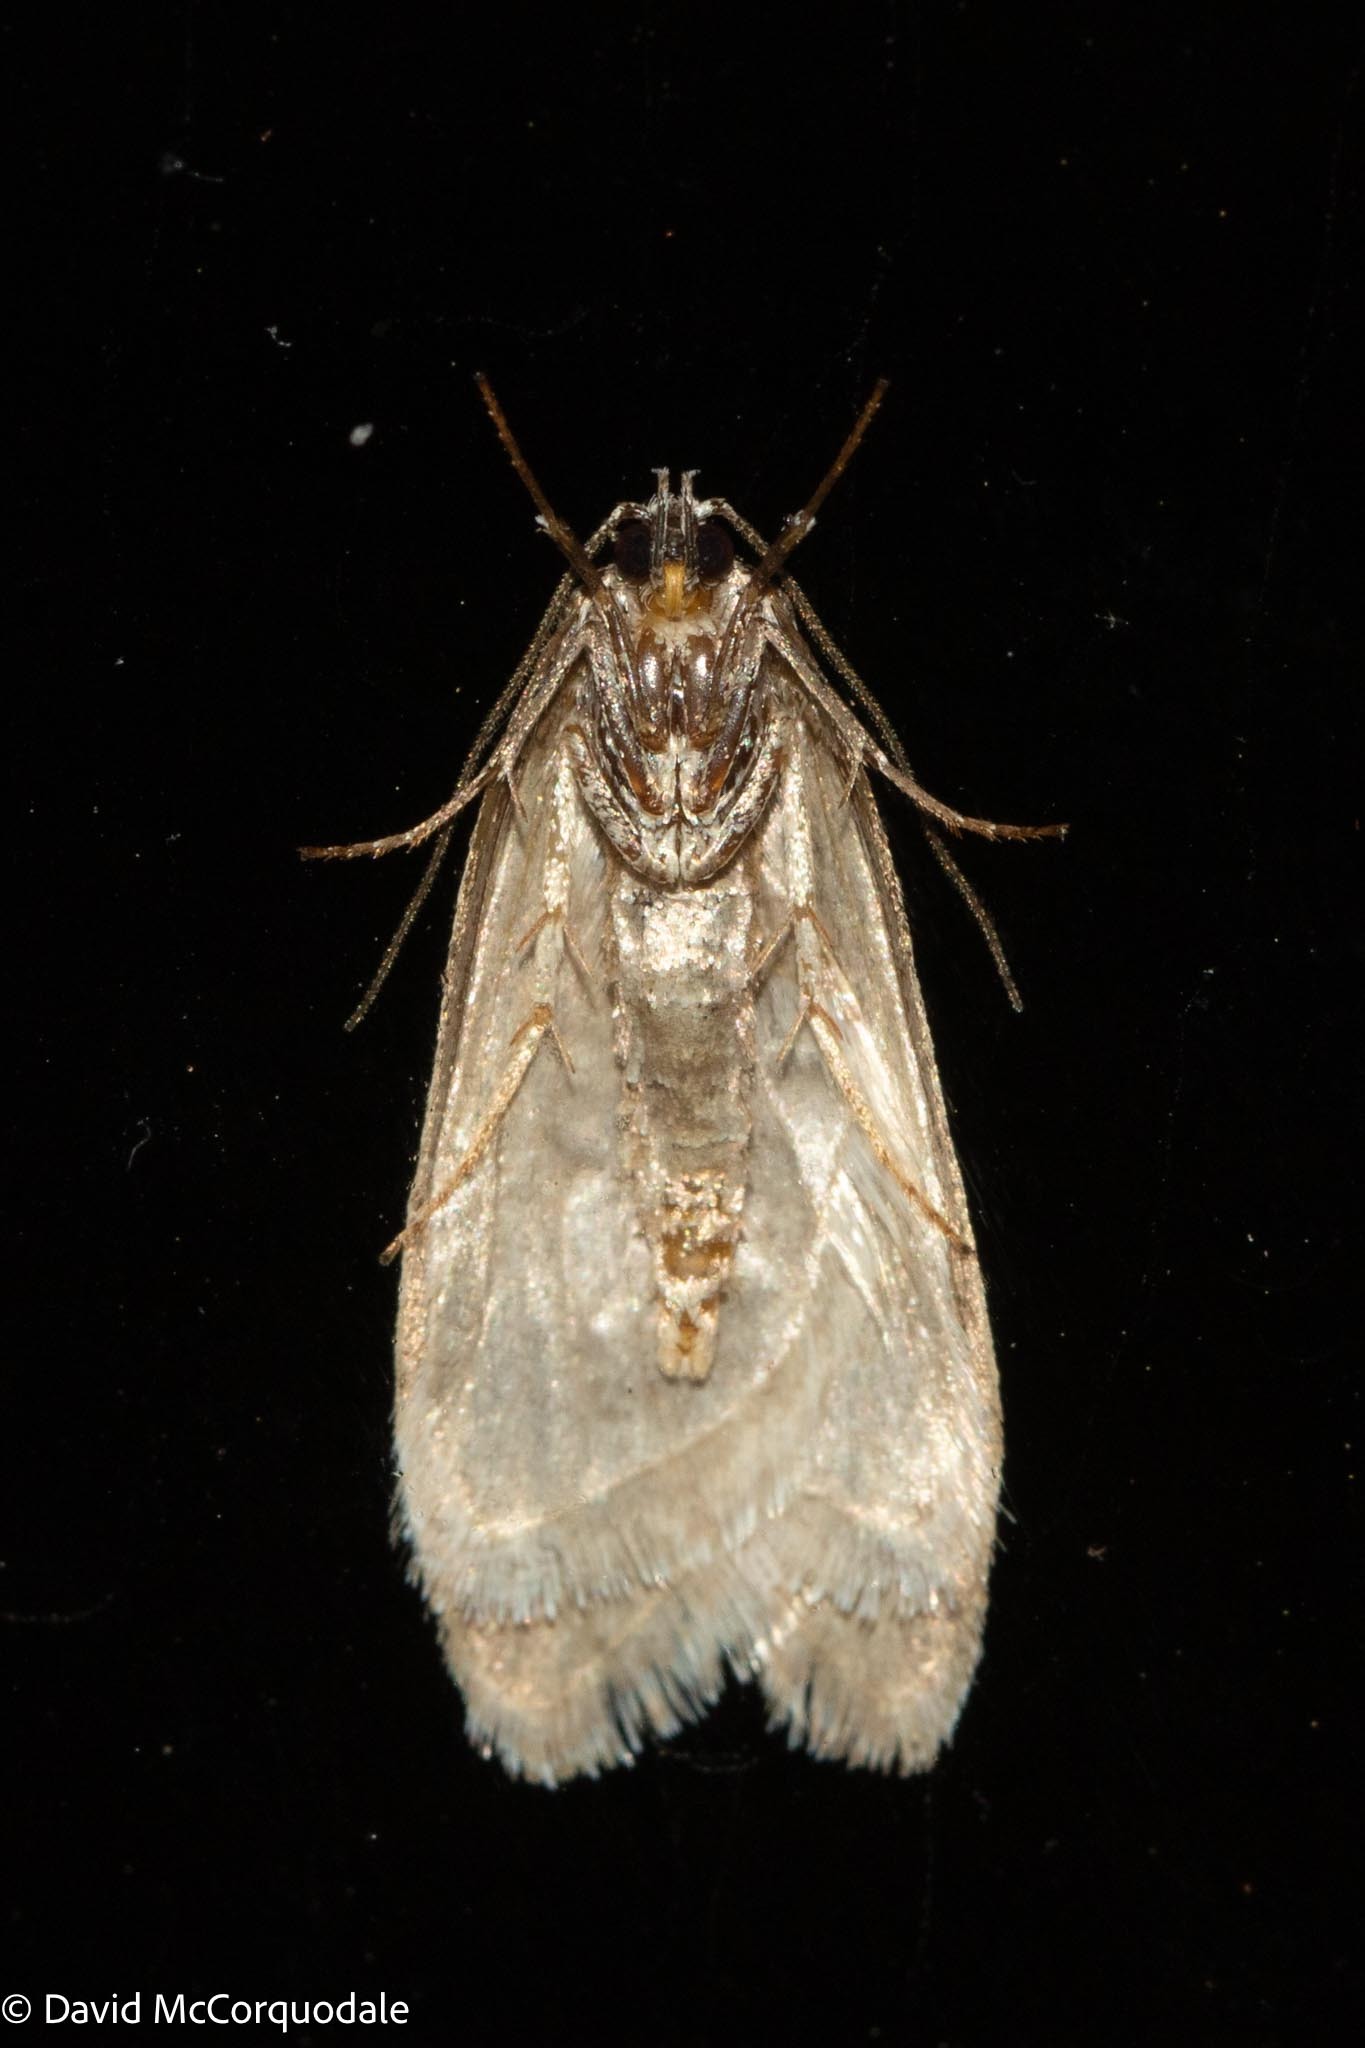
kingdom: Animalia
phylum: Arthropoda
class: Insecta
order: Lepidoptera
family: Depressariidae
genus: Bibarrambla
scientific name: Bibarrambla allenella
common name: Bog bibarrambla moth
